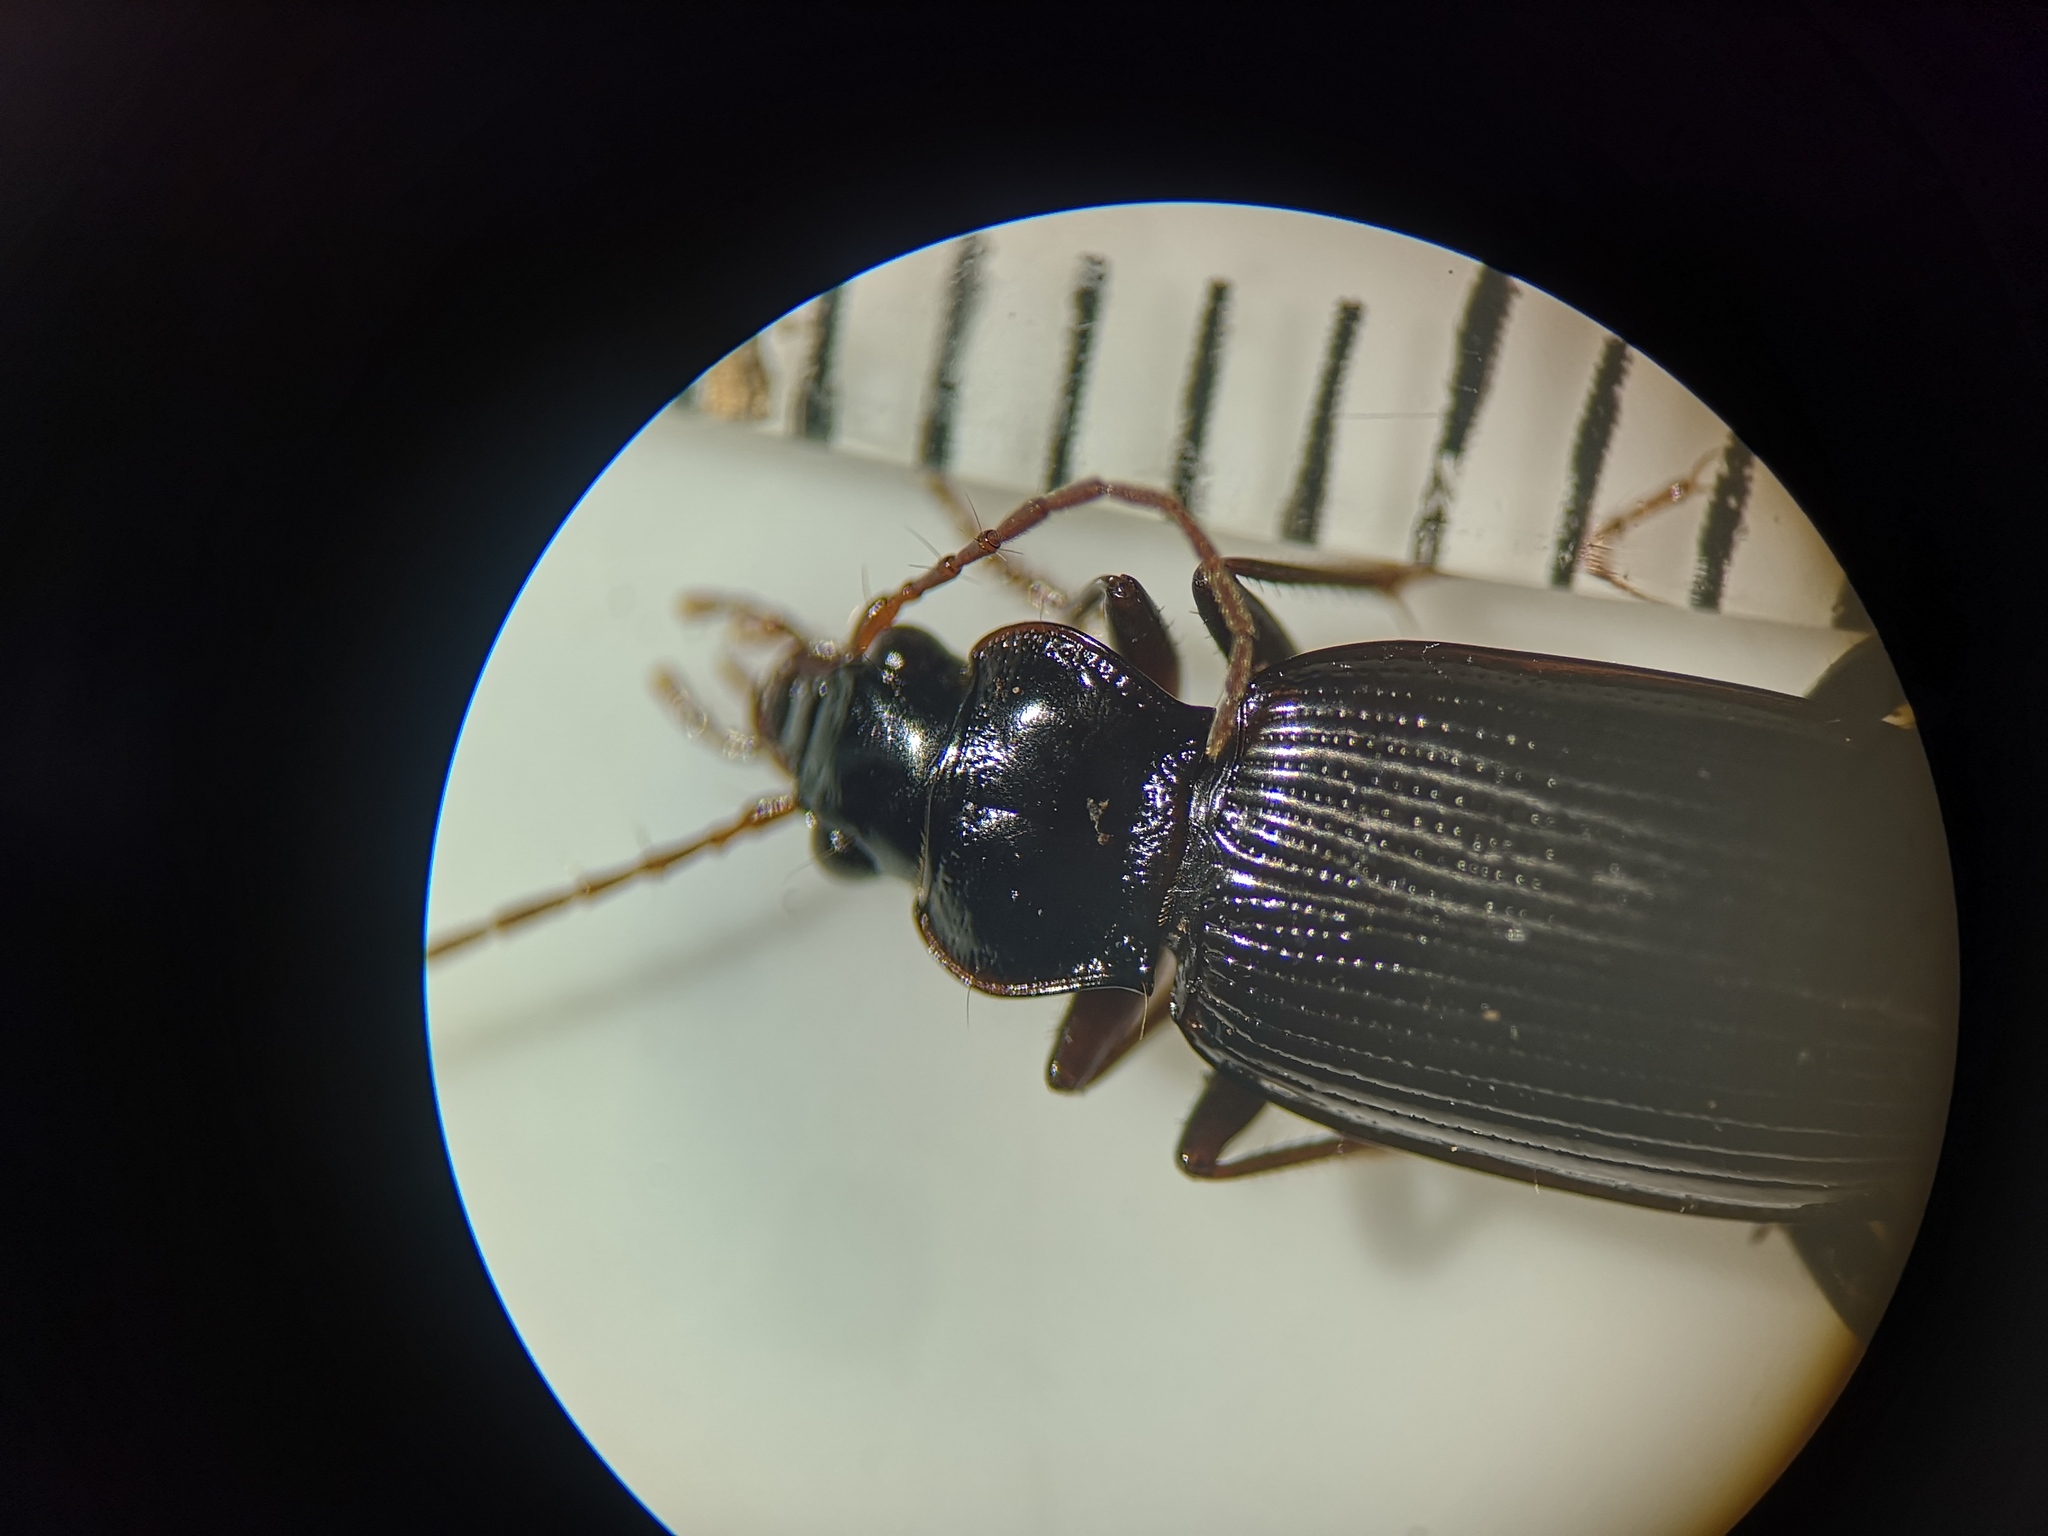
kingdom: Animalia
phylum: Arthropoda
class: Insecta
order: Coleoptera
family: Carabidae
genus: Nebria
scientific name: Nebria brevicollis
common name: Short-necked gazelle beetle
